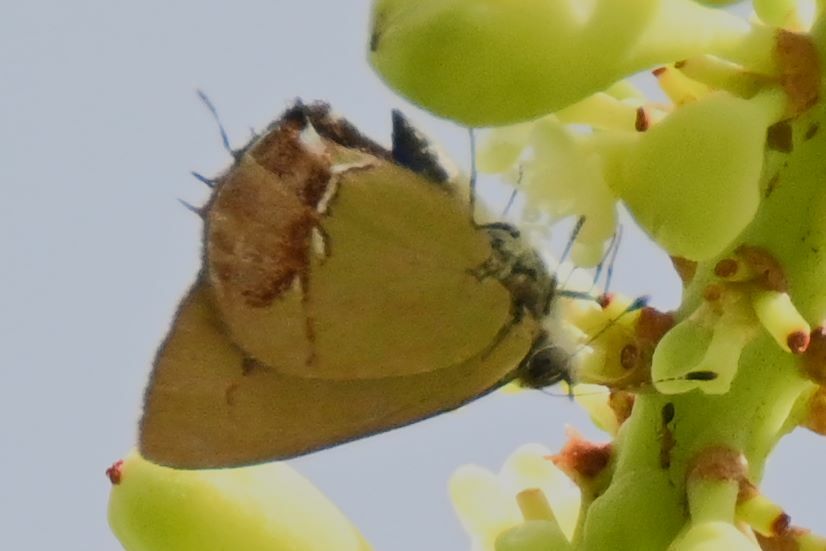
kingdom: Animalia
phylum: Arthropoda
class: Insecta
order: Lepidoptera
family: Lycaenidae
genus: Thecla
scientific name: Thecla maesites
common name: Verde azul hairstreak
